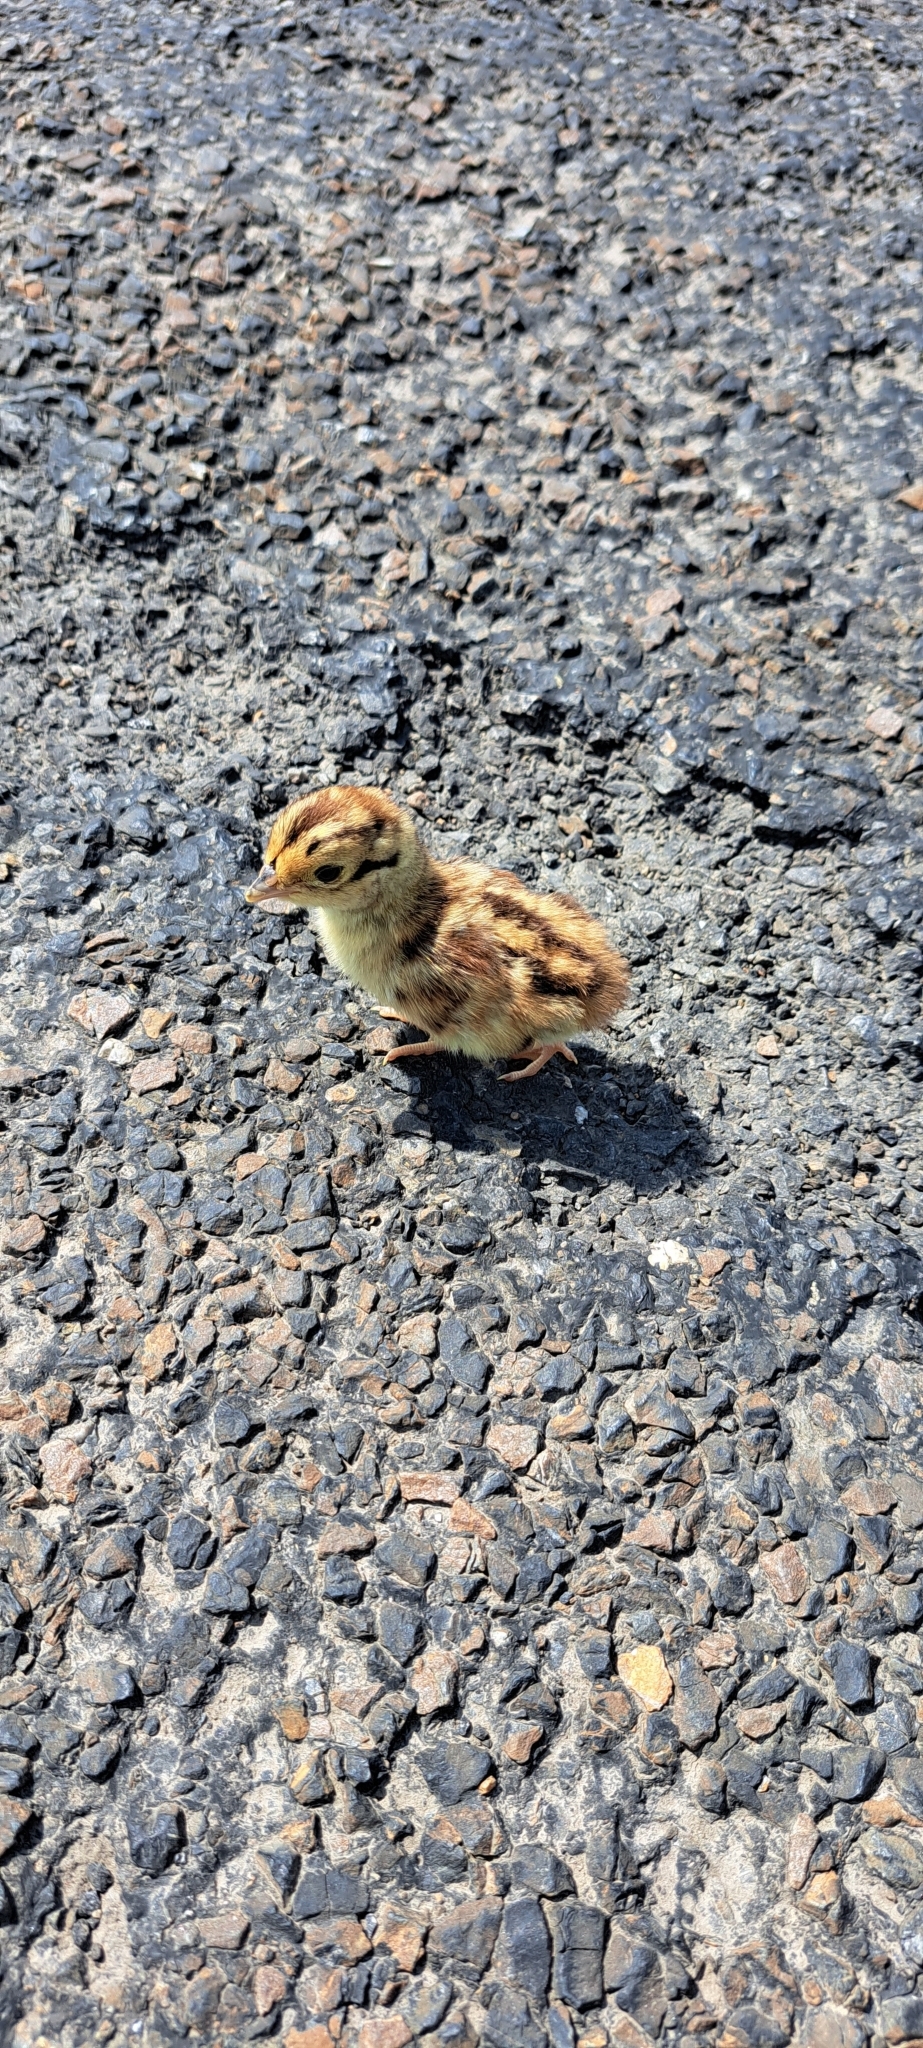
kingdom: Animalia
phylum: Chordata
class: Aves
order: Galliformes
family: Phasianidae
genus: Phasianus
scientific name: Phasianus colchicus
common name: Common pheasant
